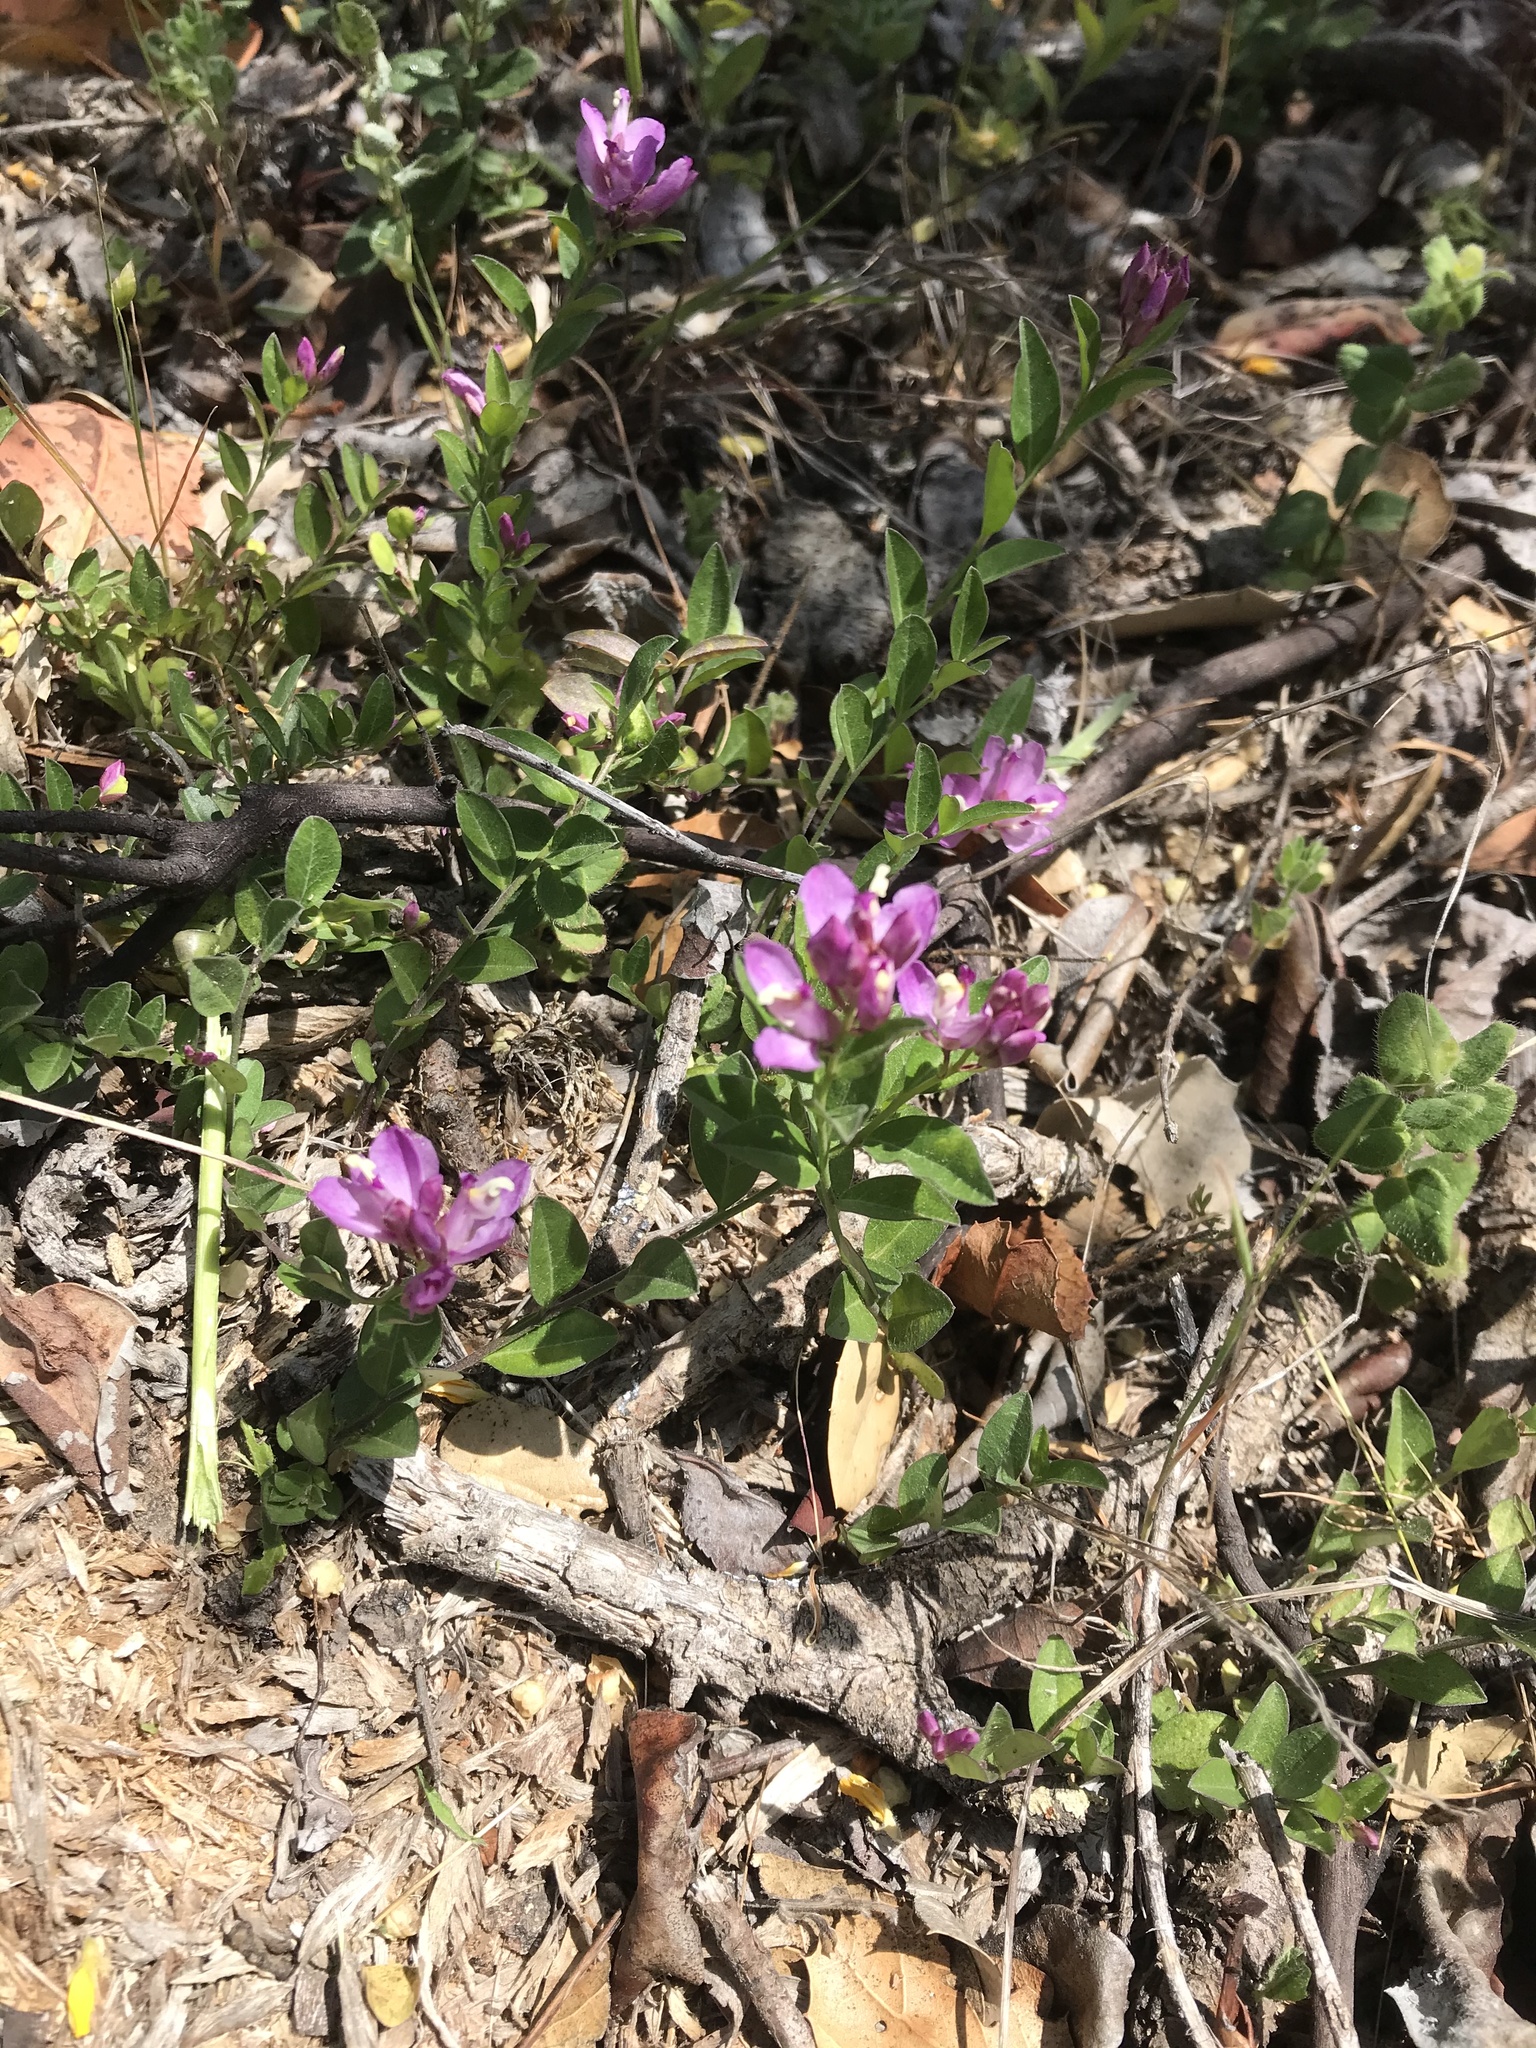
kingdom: Plantae
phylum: Tracheophyta
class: Magnoliopsida
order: Fabales
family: Polygalaceae
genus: Rhinotropis
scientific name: Rhinotropis californica
